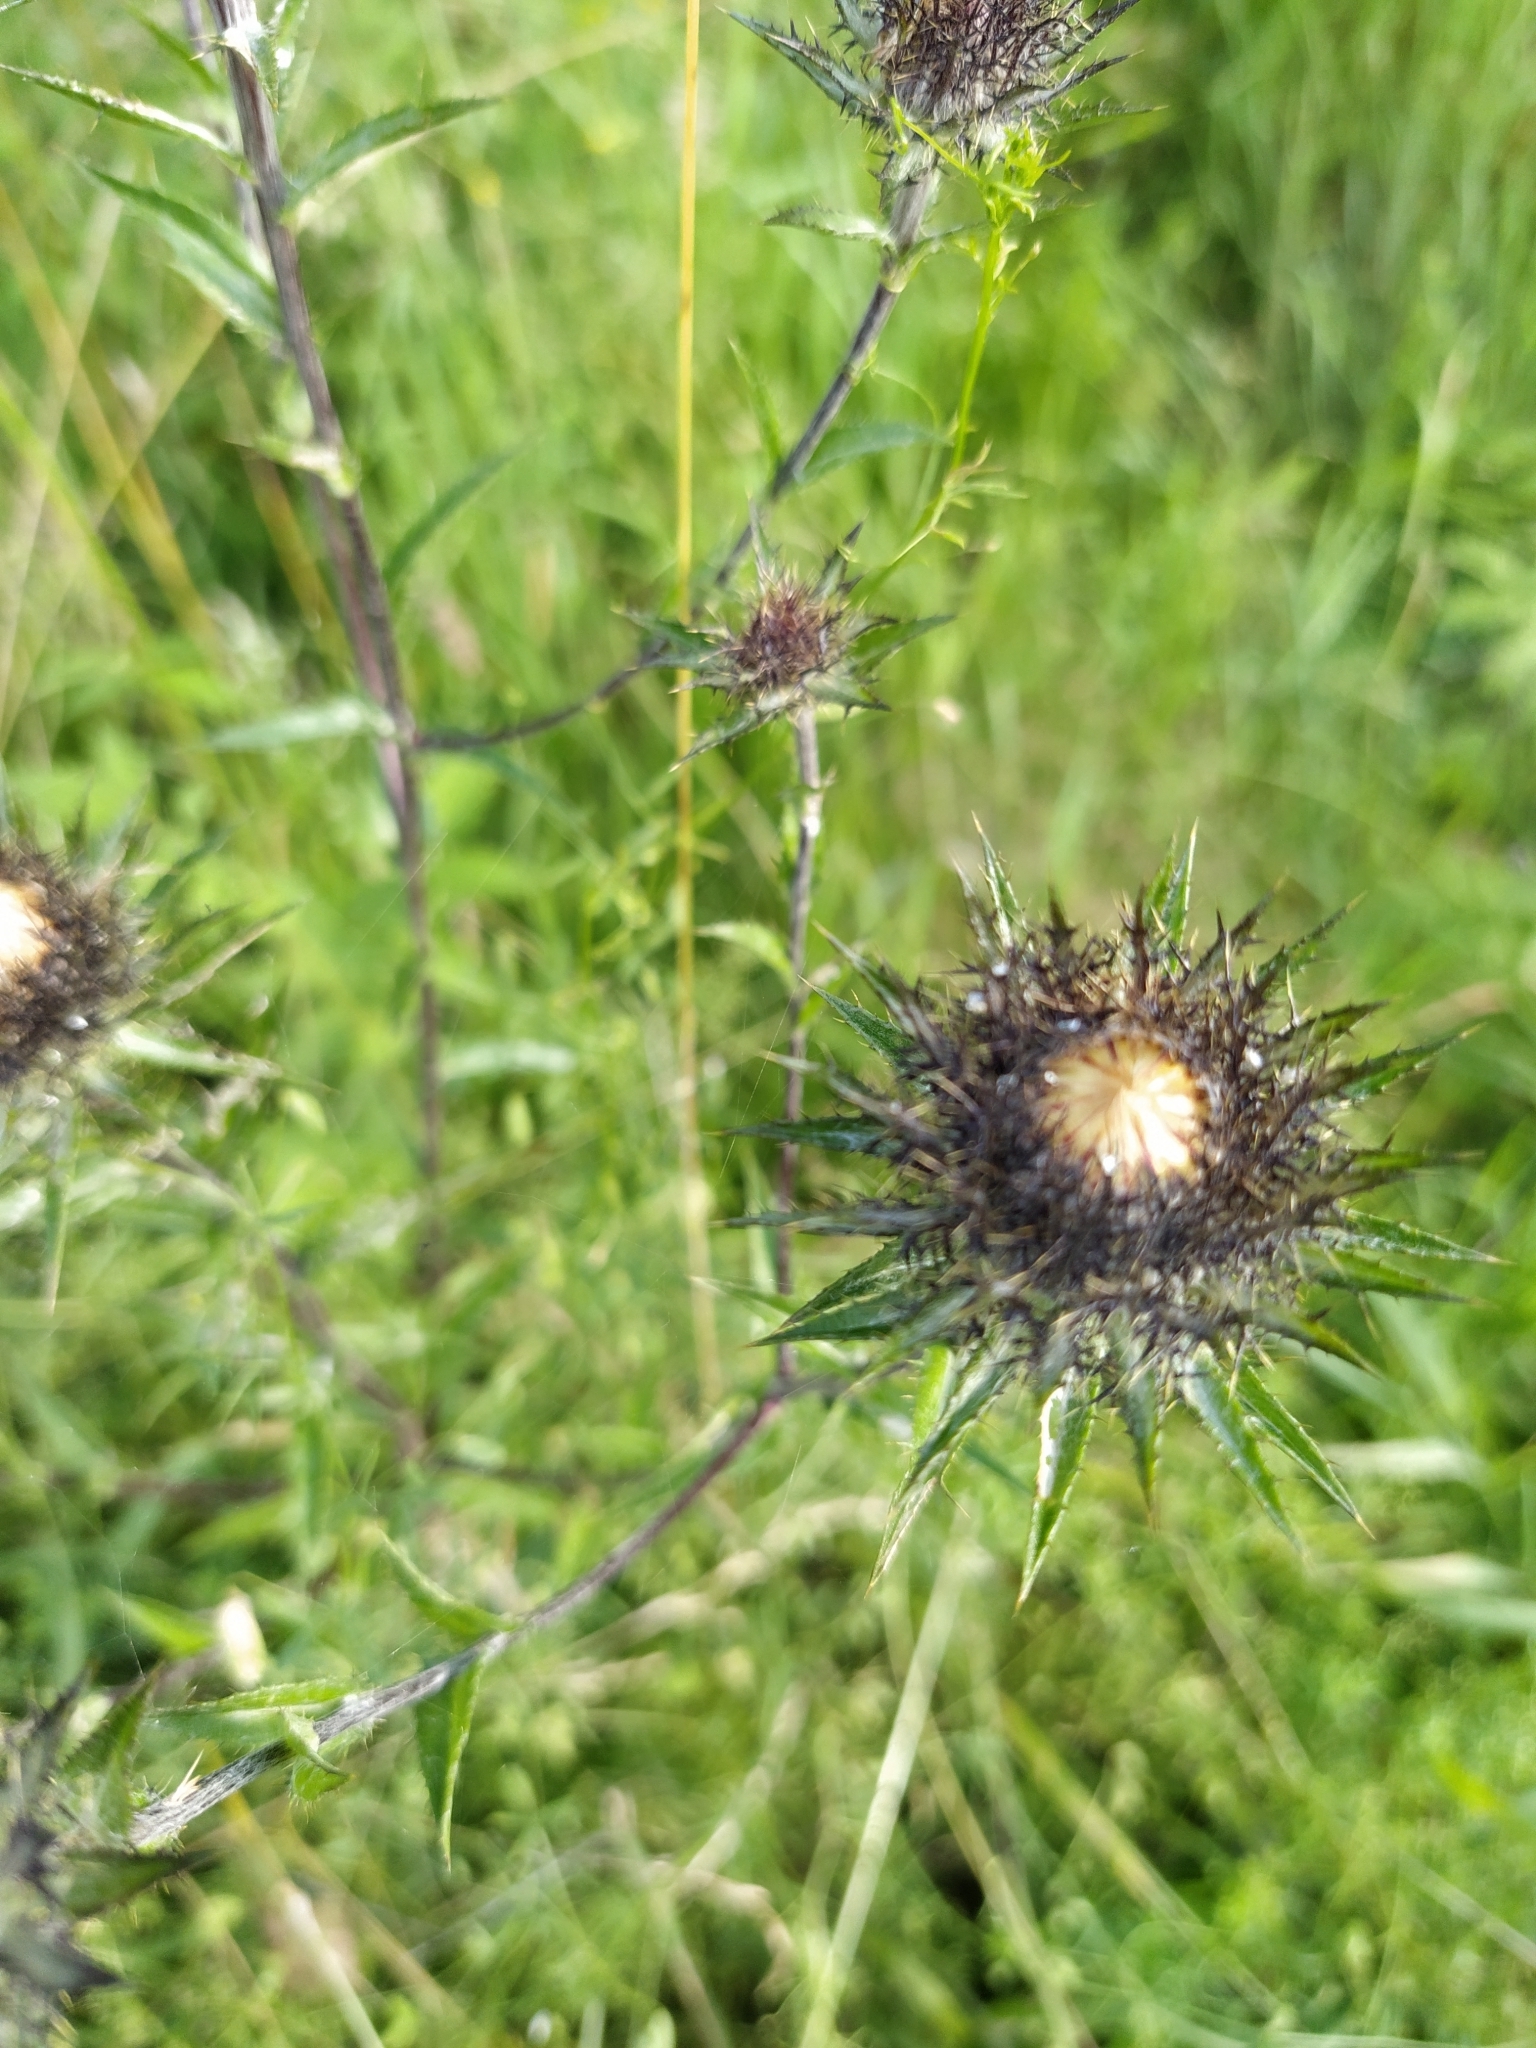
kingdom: Plantae
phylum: Tracheophyta
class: Magnoliopsida
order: Asterales
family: Asteraceae
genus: Carlina
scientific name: Carlina biebersteinii
